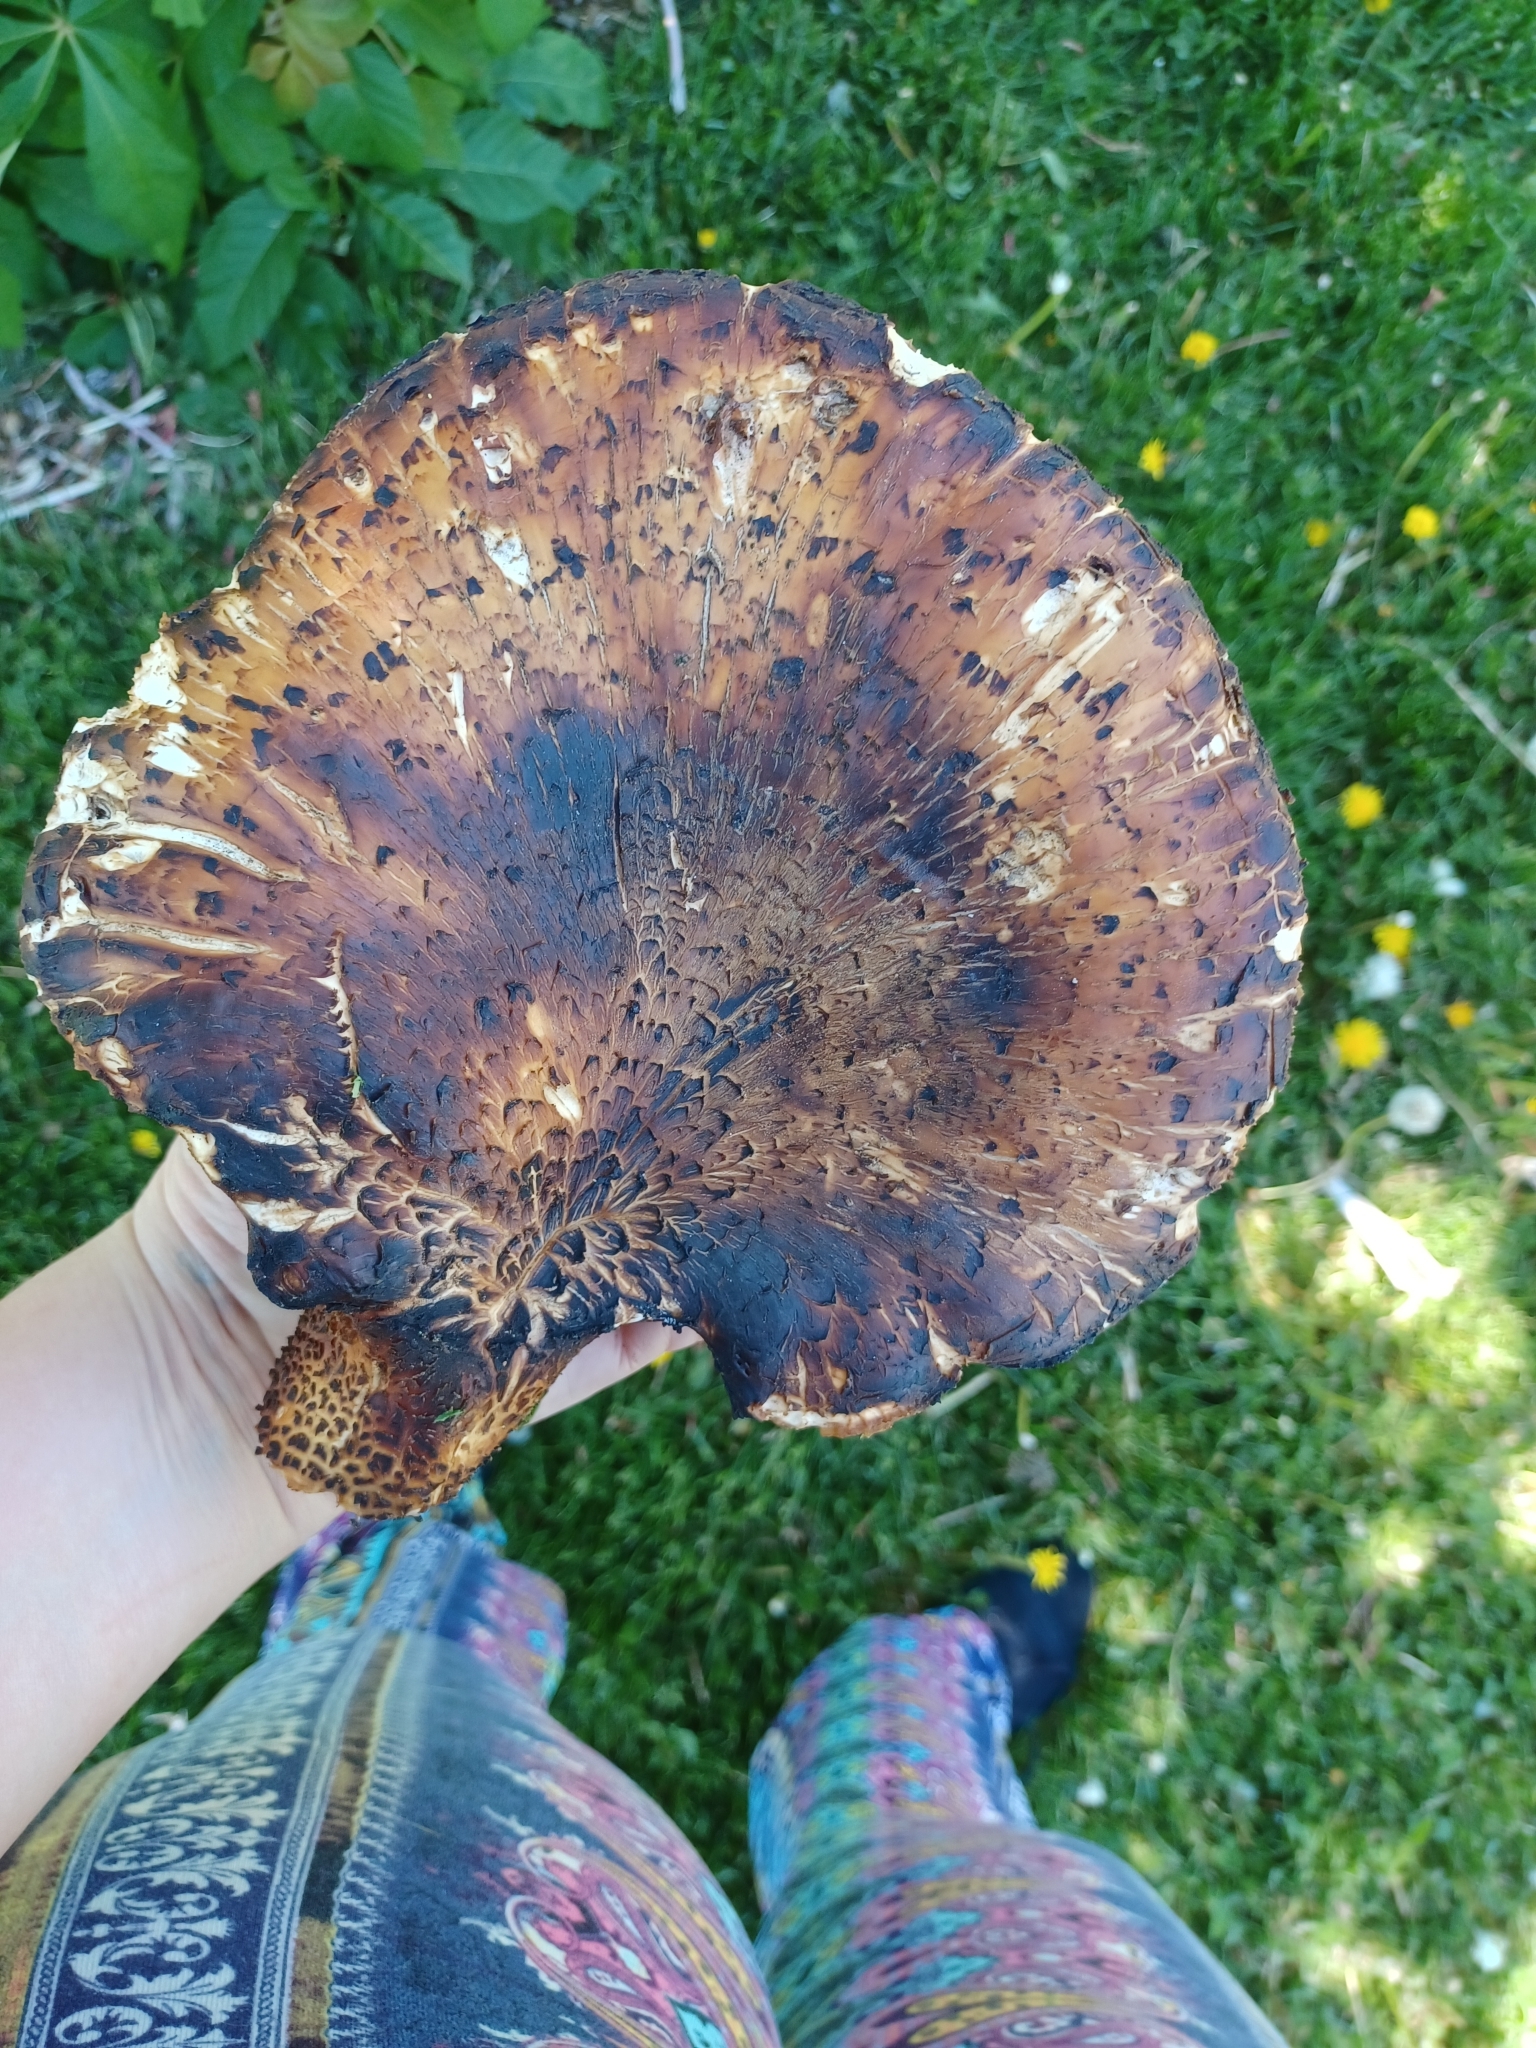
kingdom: Fungi
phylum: Basidiomycota
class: Agaricomycetes
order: Polyporales
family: Polyporaceae
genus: Cerioporus
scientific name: Cerioporus squamosus
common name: Dryad's saddle
